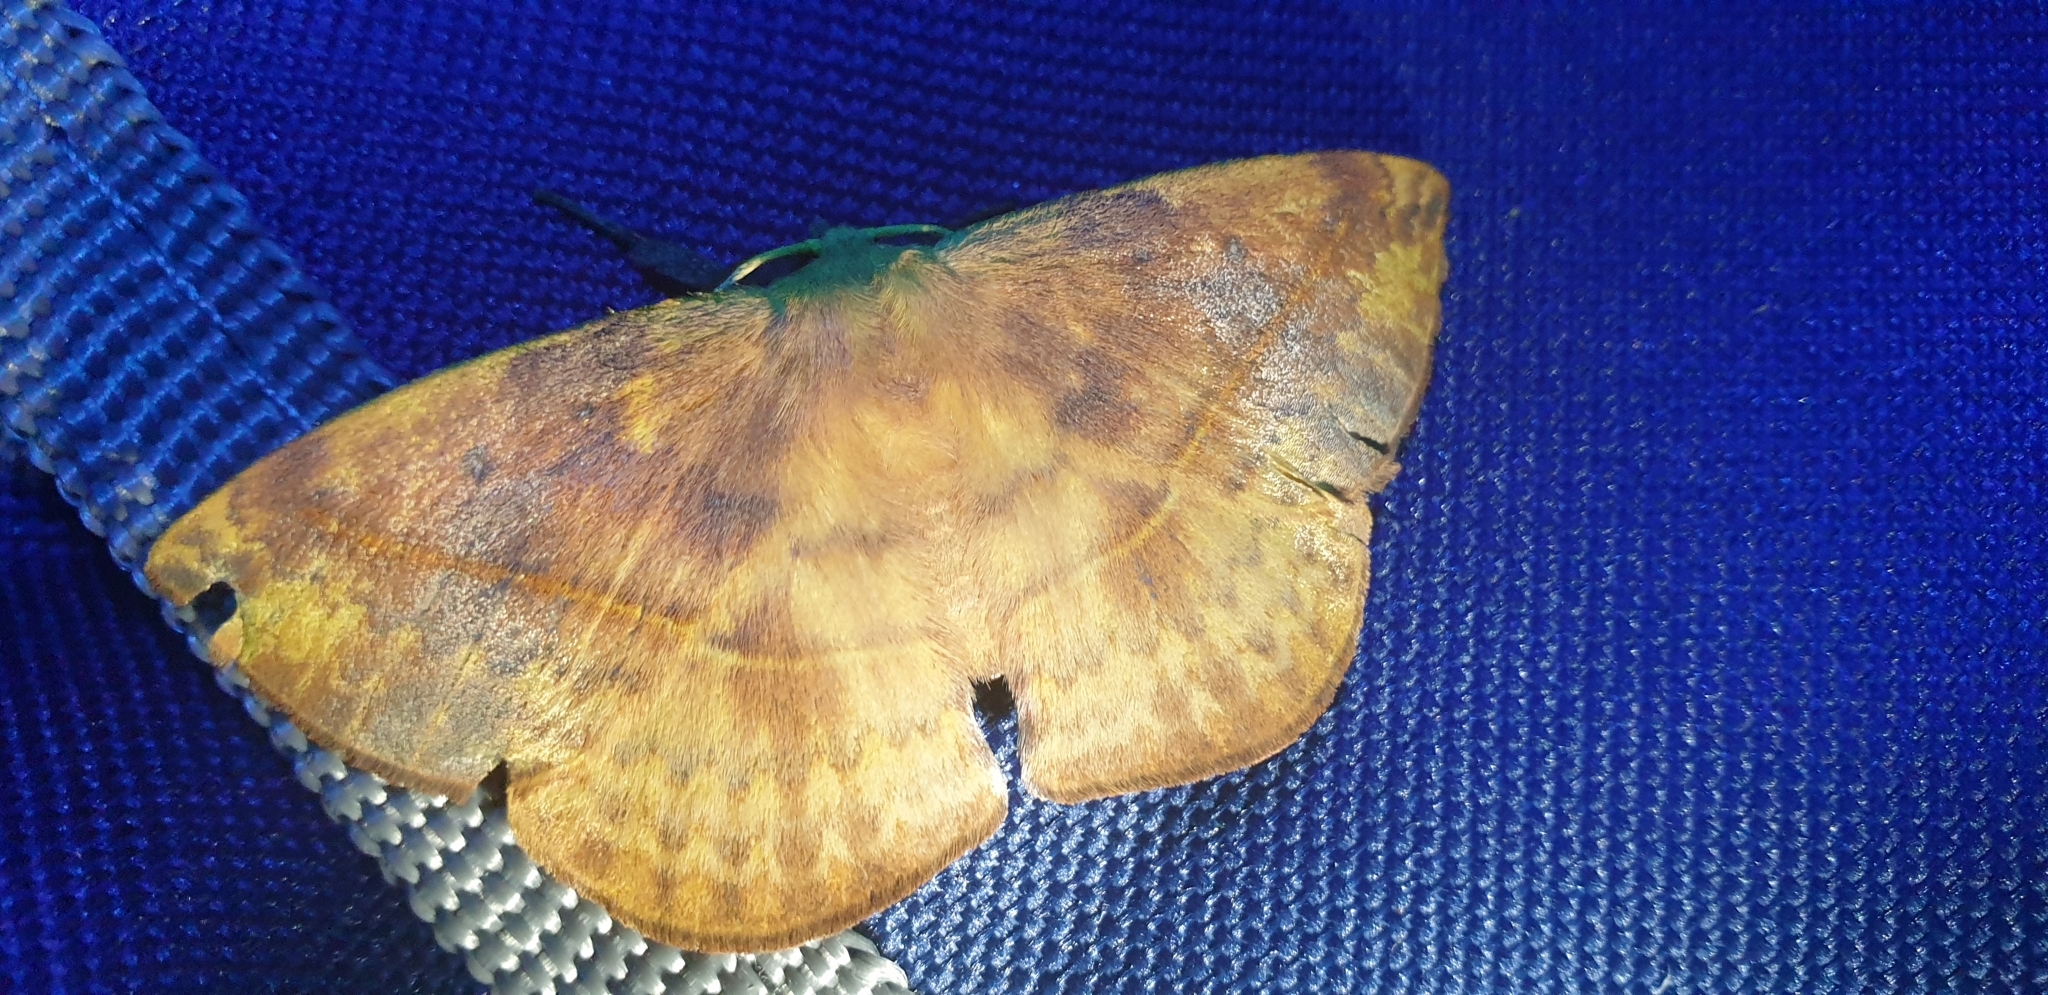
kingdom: Animalia
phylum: Arthropoda
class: Insecta
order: Lepidoptera
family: Saturniidae
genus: Syntherata
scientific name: Syntherata janetta
